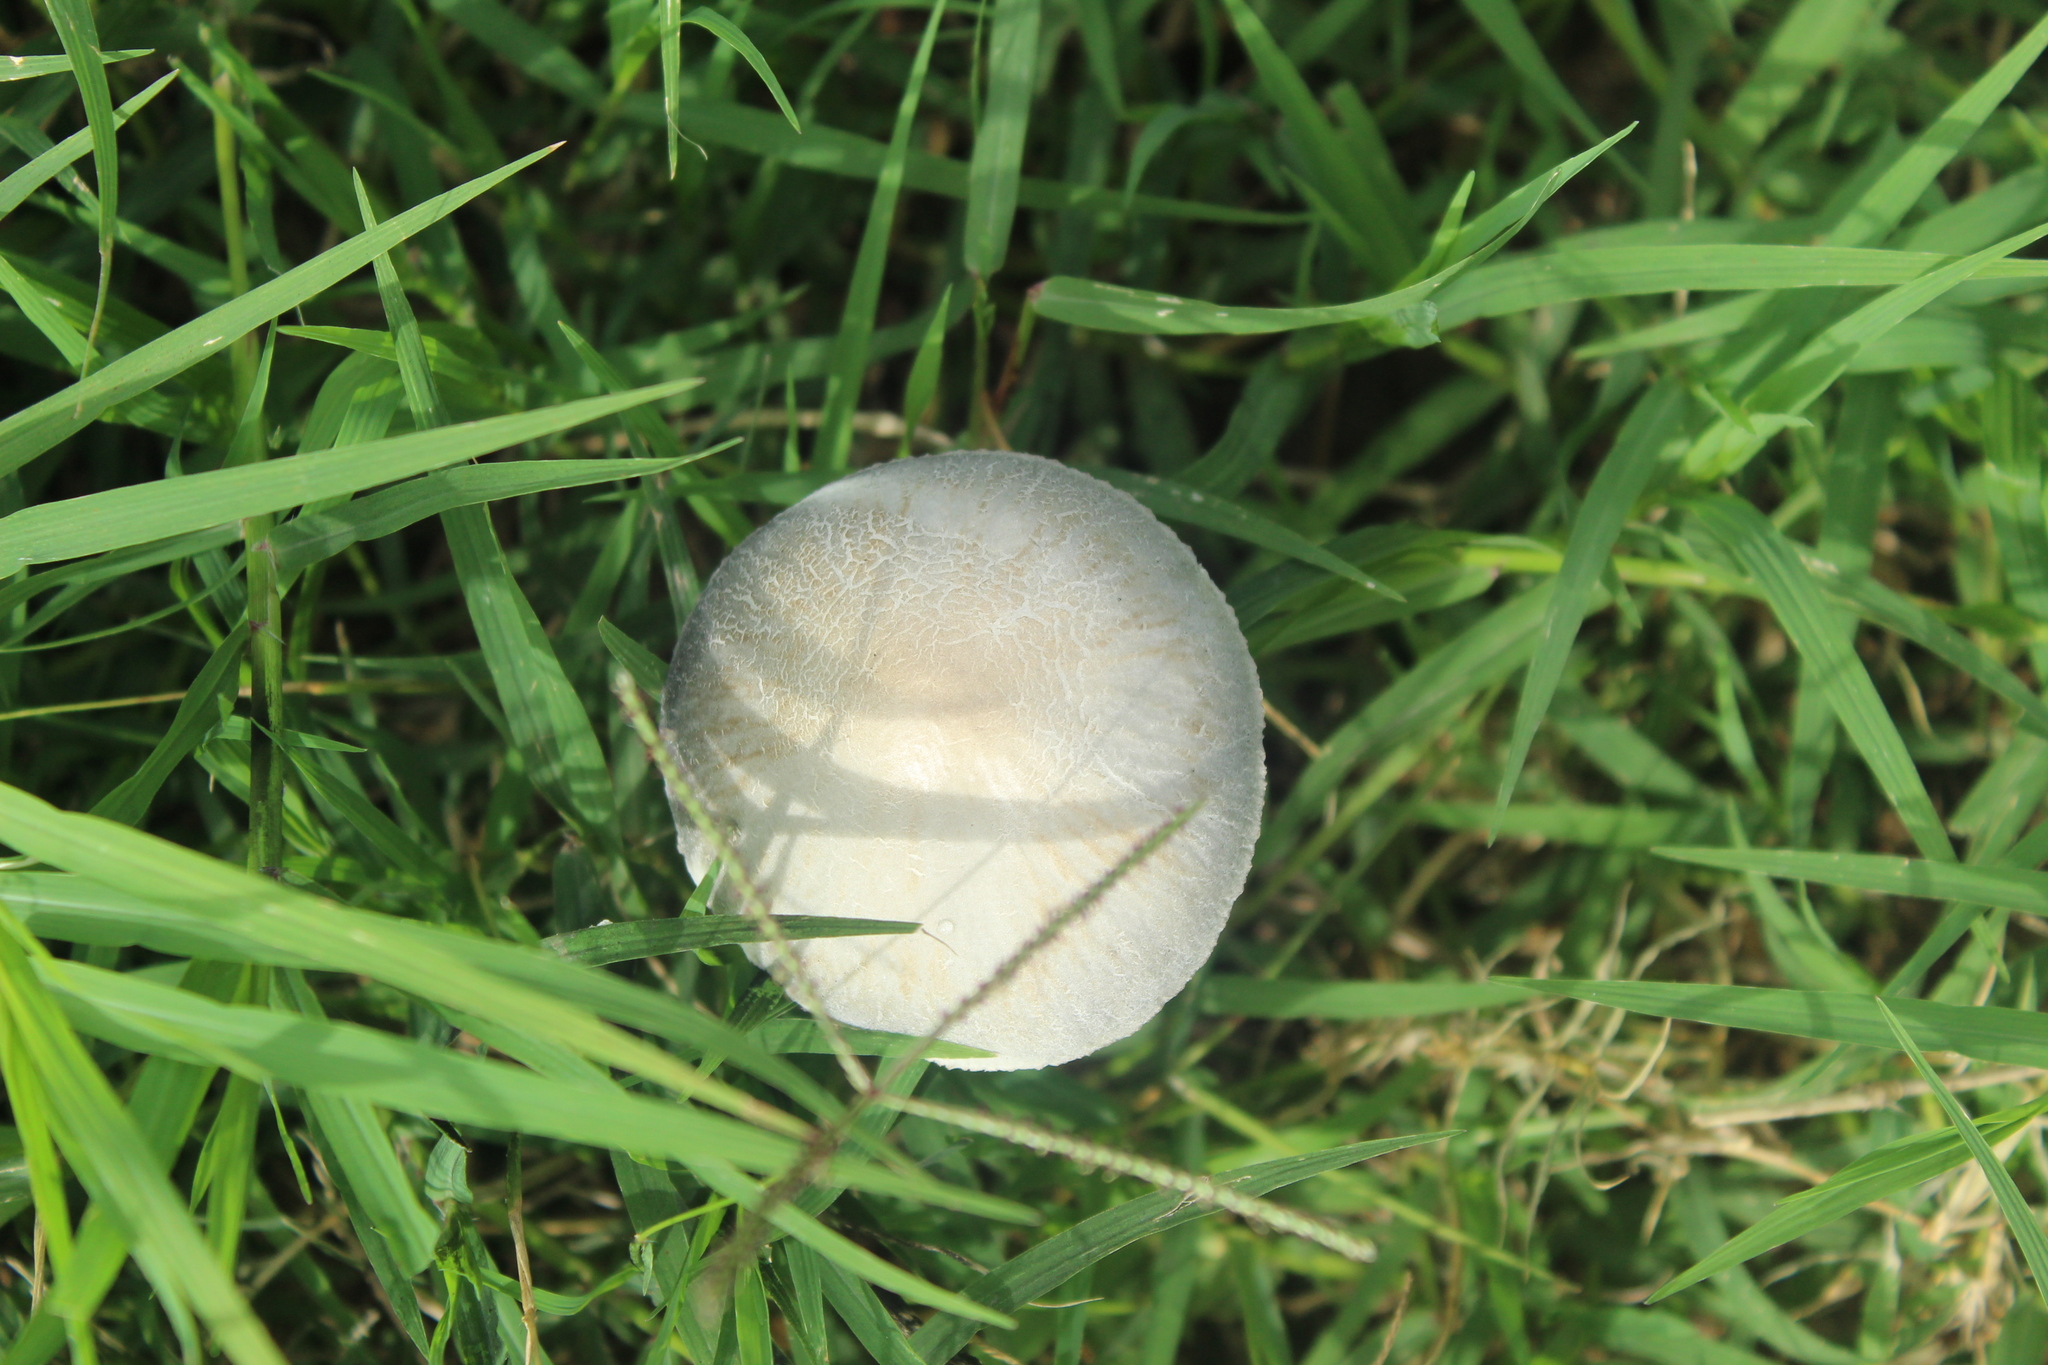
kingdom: Fungi
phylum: Basidiomycota
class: Agaricomycetes
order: Agaricales
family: Bolbitiaceae
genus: Panaeolus
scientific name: Panaeolus
